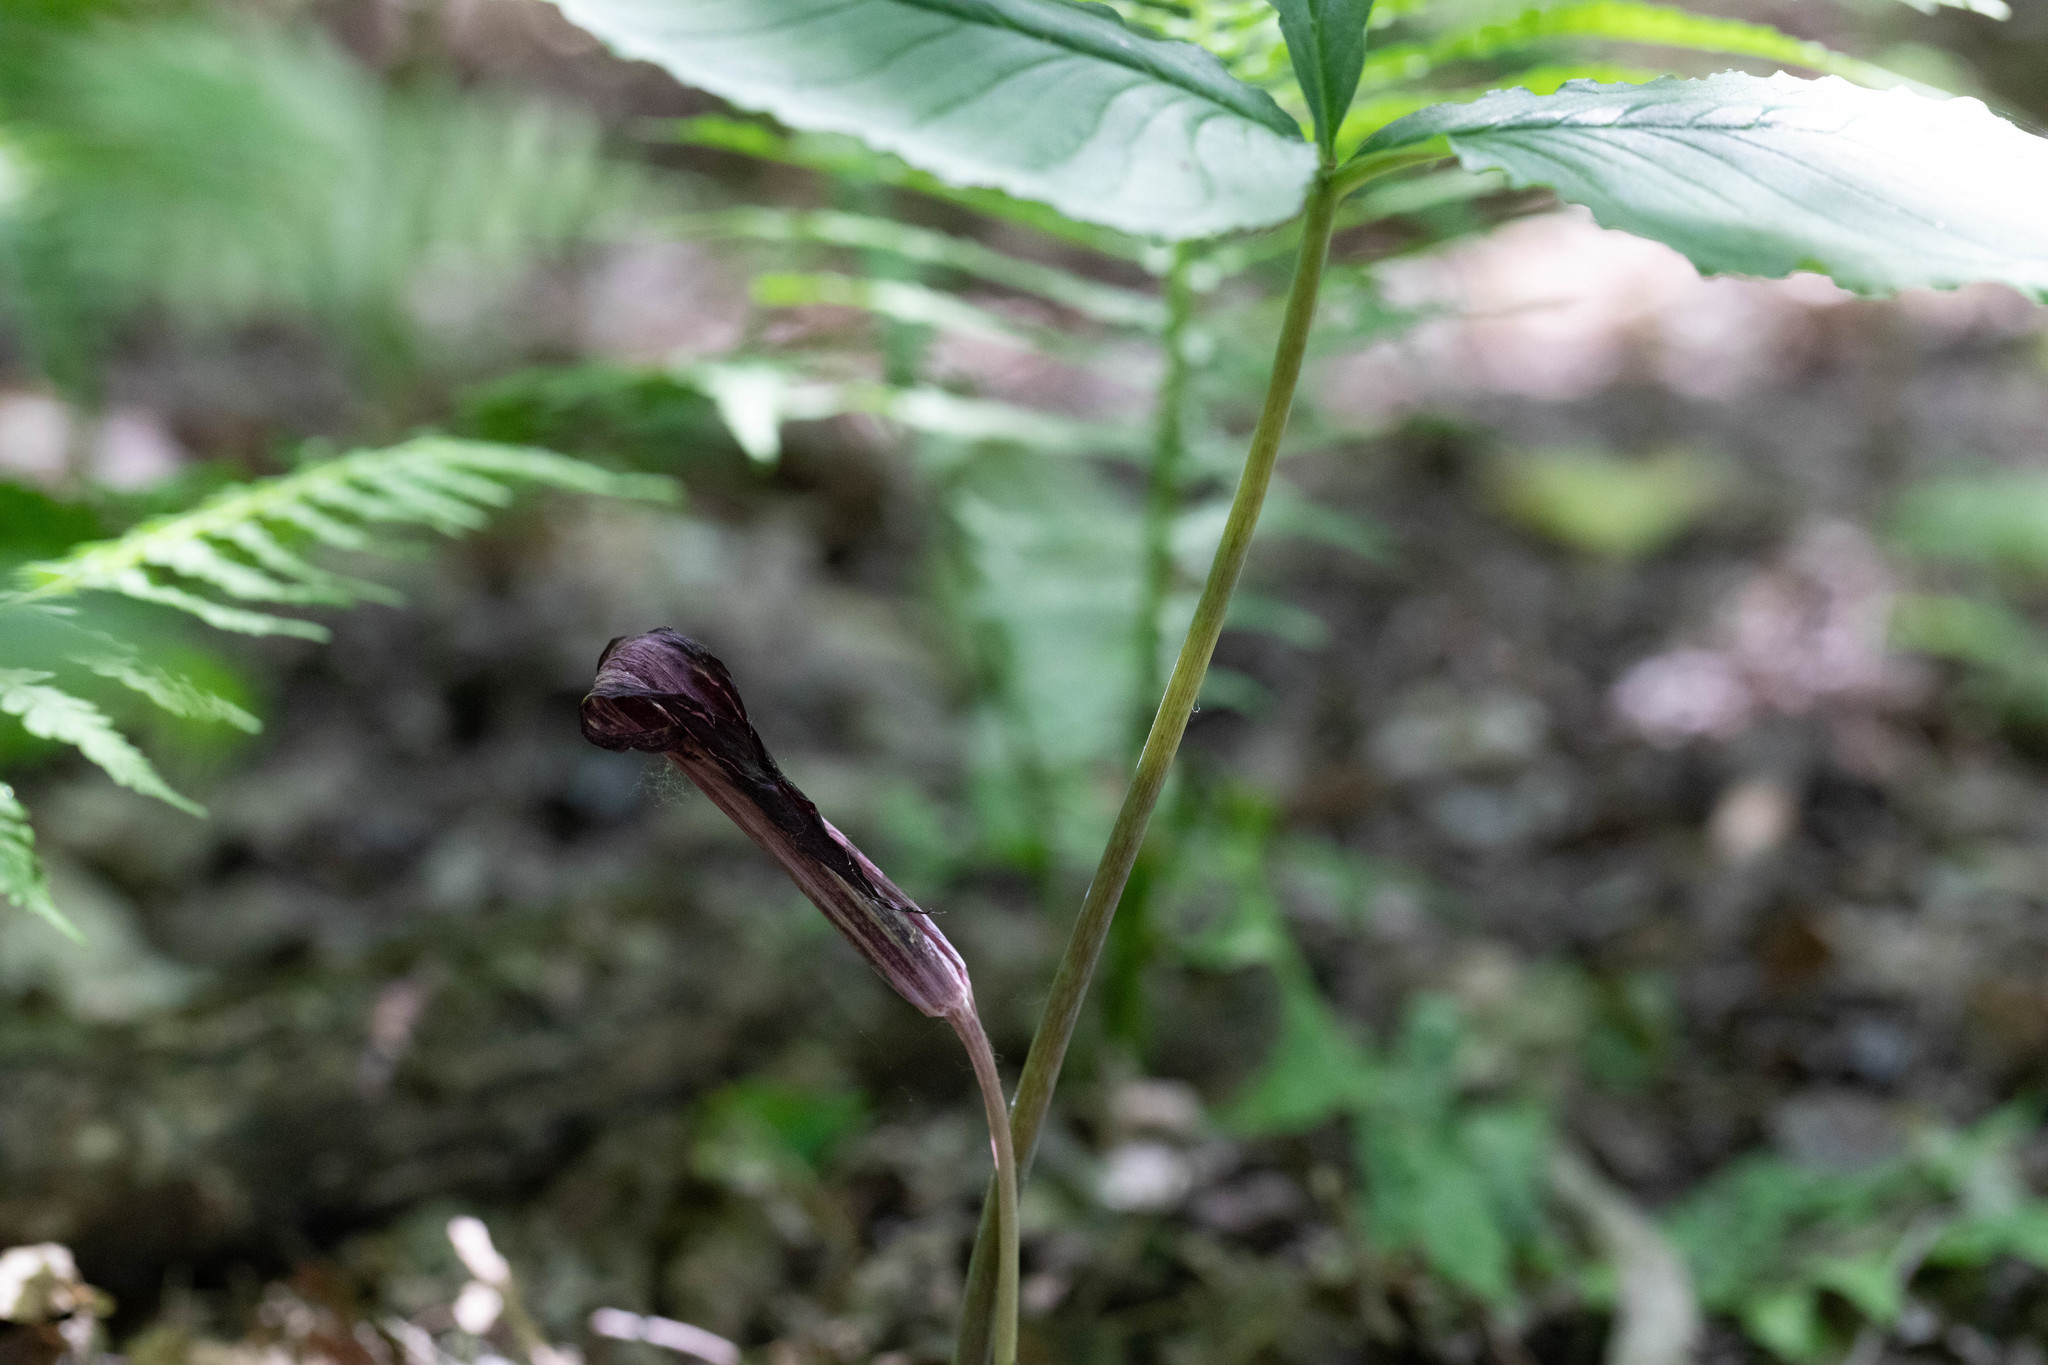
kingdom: Plantae
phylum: Tracheophyta
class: Liliopsida
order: Alismatales
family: Araceae
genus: Arisaema
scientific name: Arisaema triphyllum
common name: Jack-in-the-pulpit
